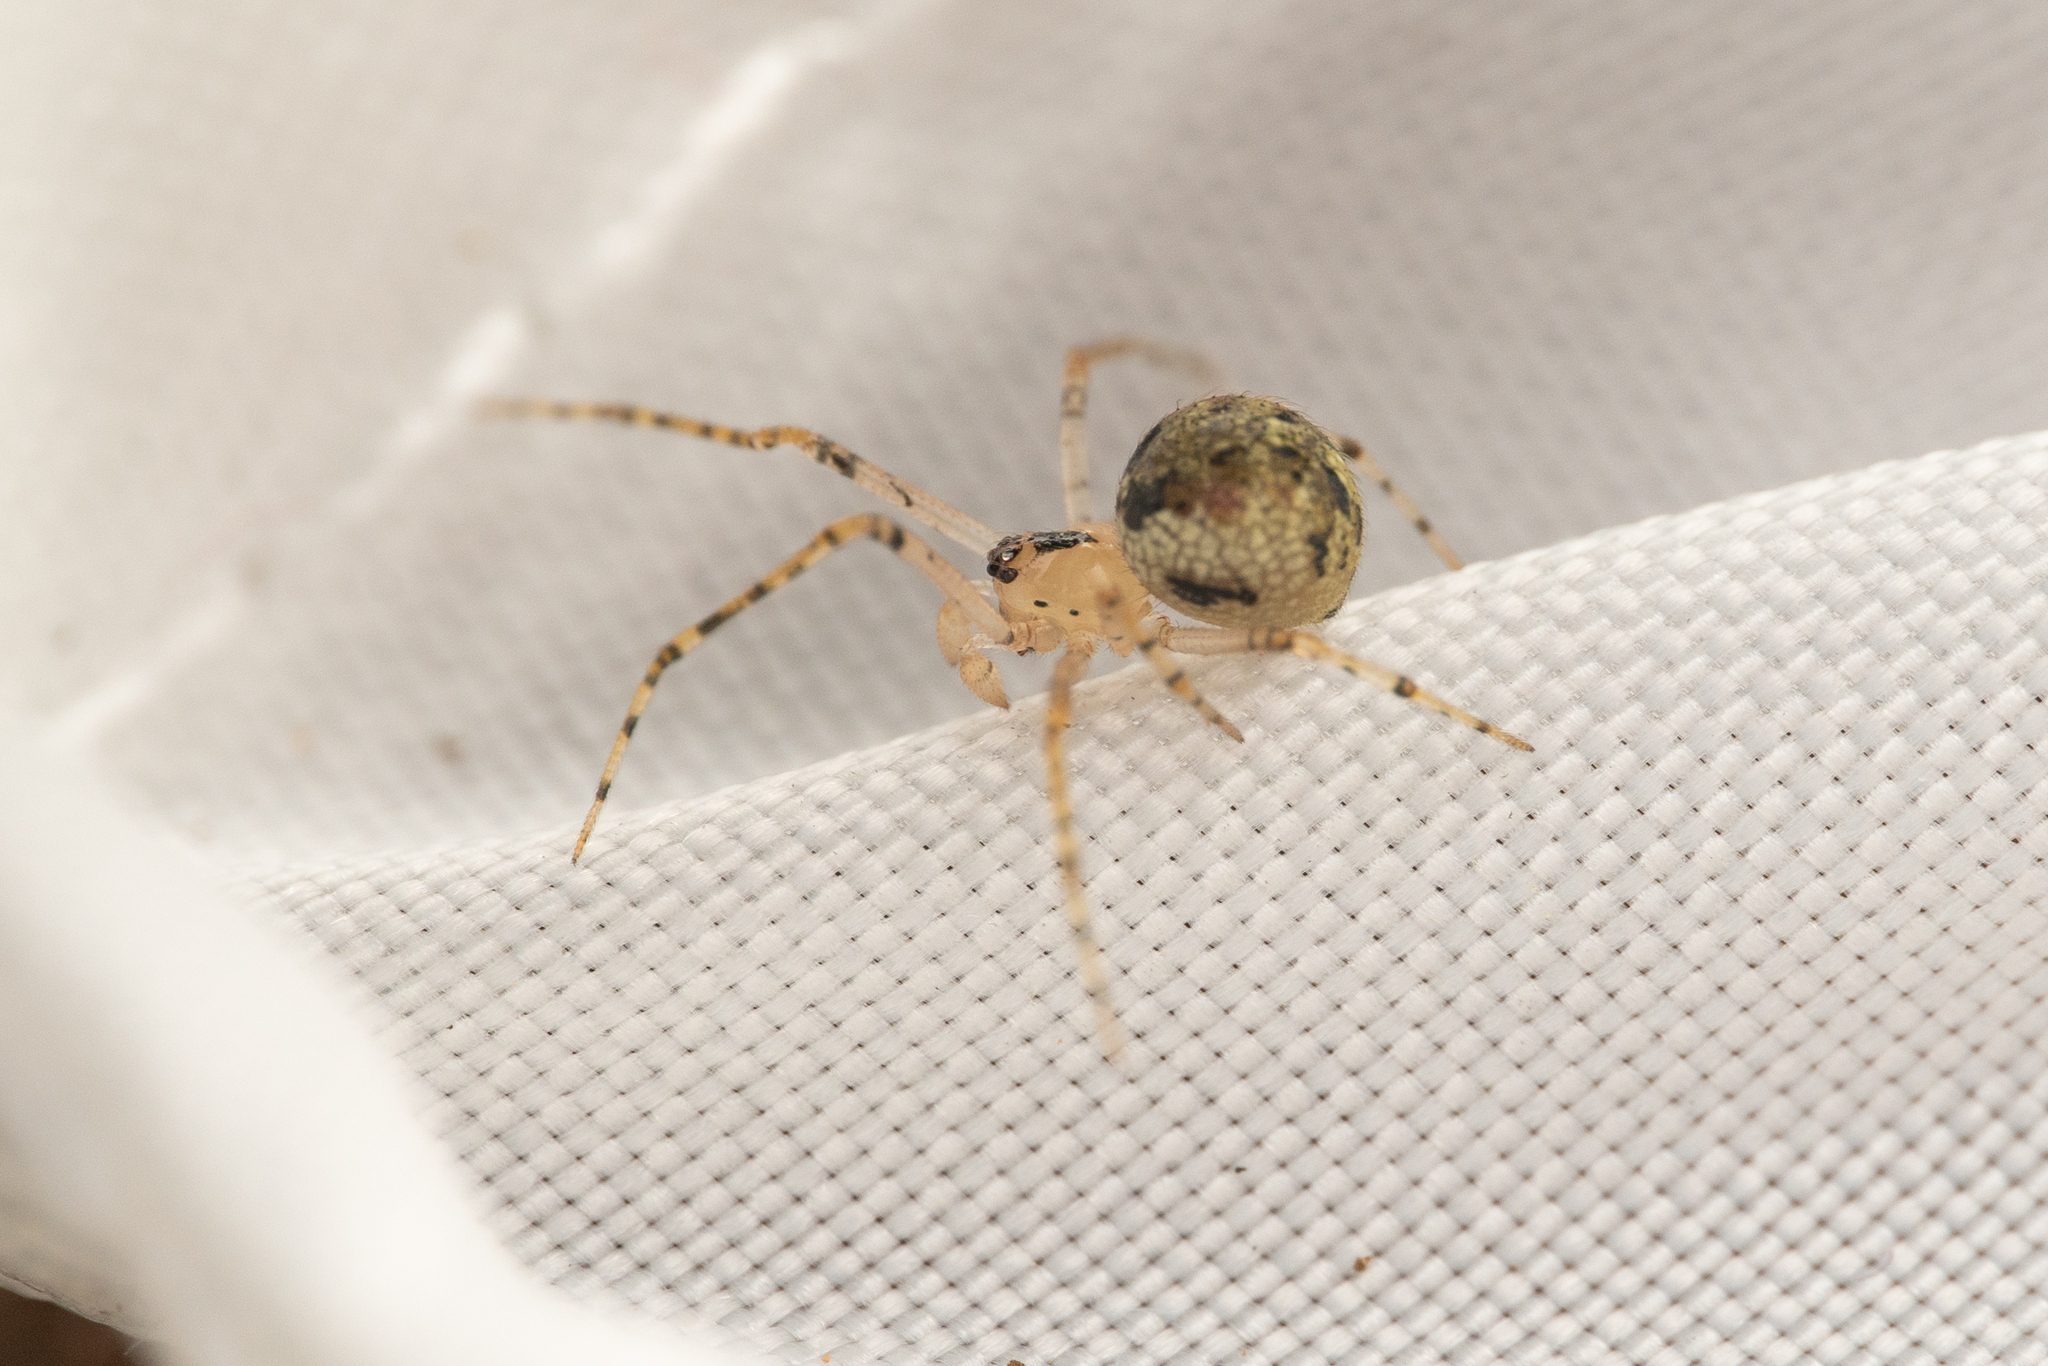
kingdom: Animalia
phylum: Arthropoda
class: Arachnida
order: Araneae
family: Theridiidae
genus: Platnickina
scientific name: Platnickina tincta
